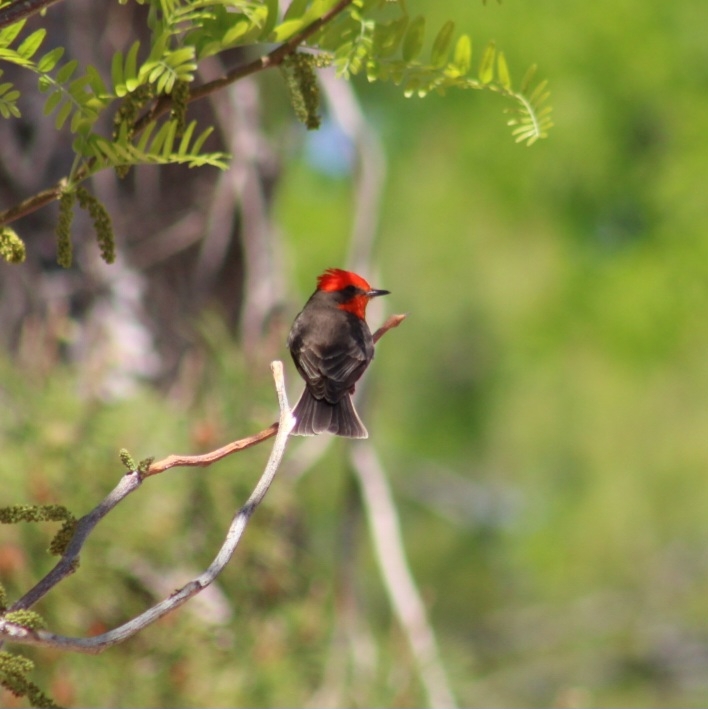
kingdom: Animalia
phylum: Chordata
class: Aves
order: Passeriformes
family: Tyrannidae
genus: Pyrocephalus
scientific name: Pyrocephalus rubinus
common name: Vermilion flycatcher
